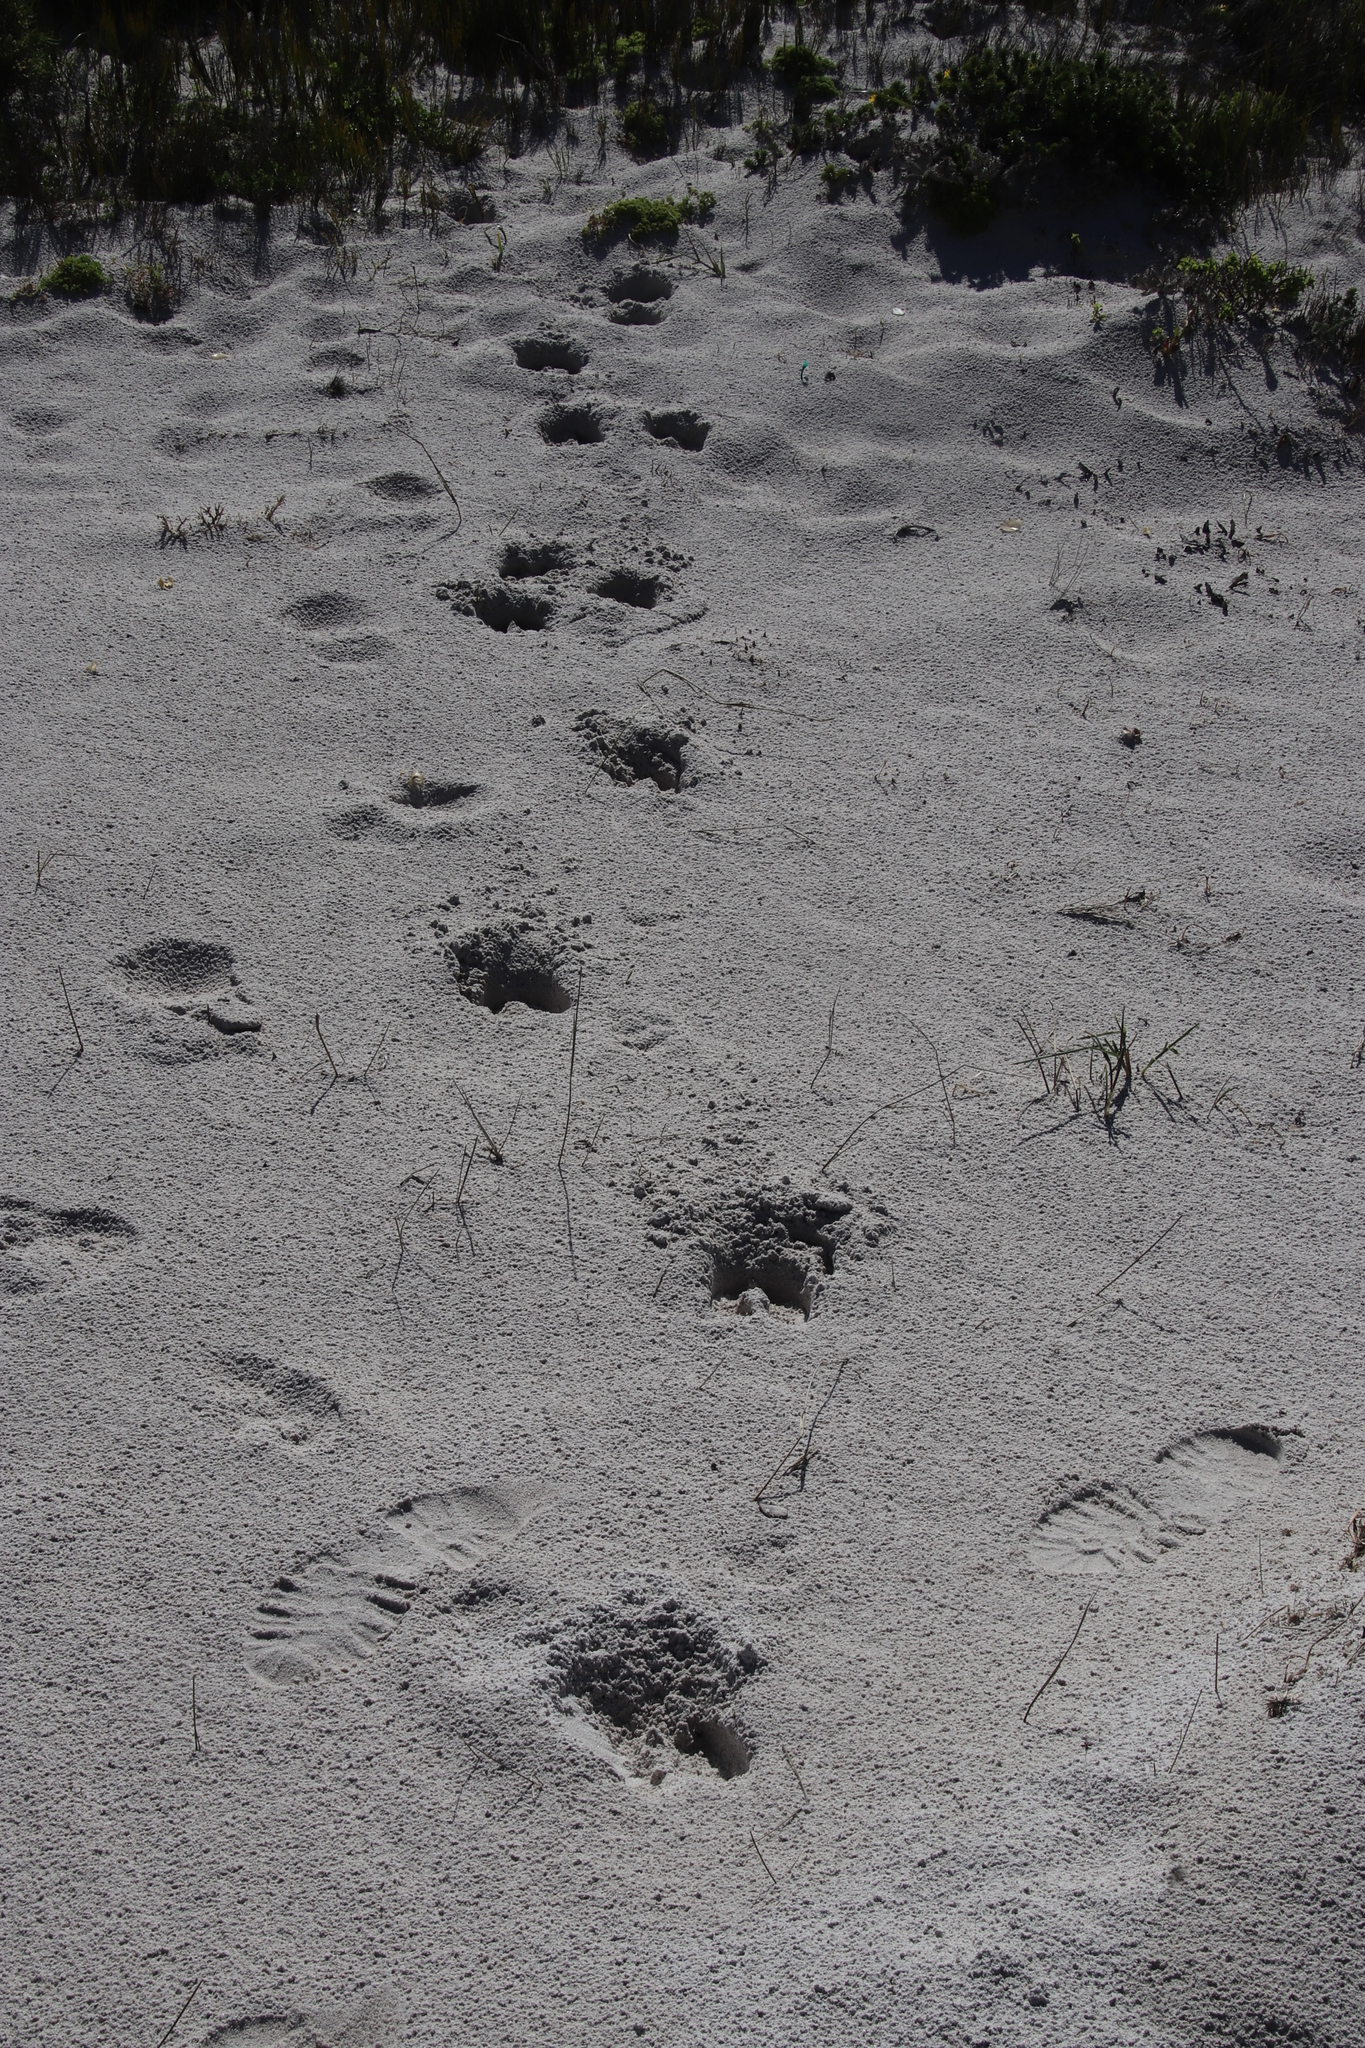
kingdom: Animalia
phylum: Chordata
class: Mammalia
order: Artiodactyla
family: Bovidae
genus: Taurotragus
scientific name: Taurotragus oryx
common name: Common eland
